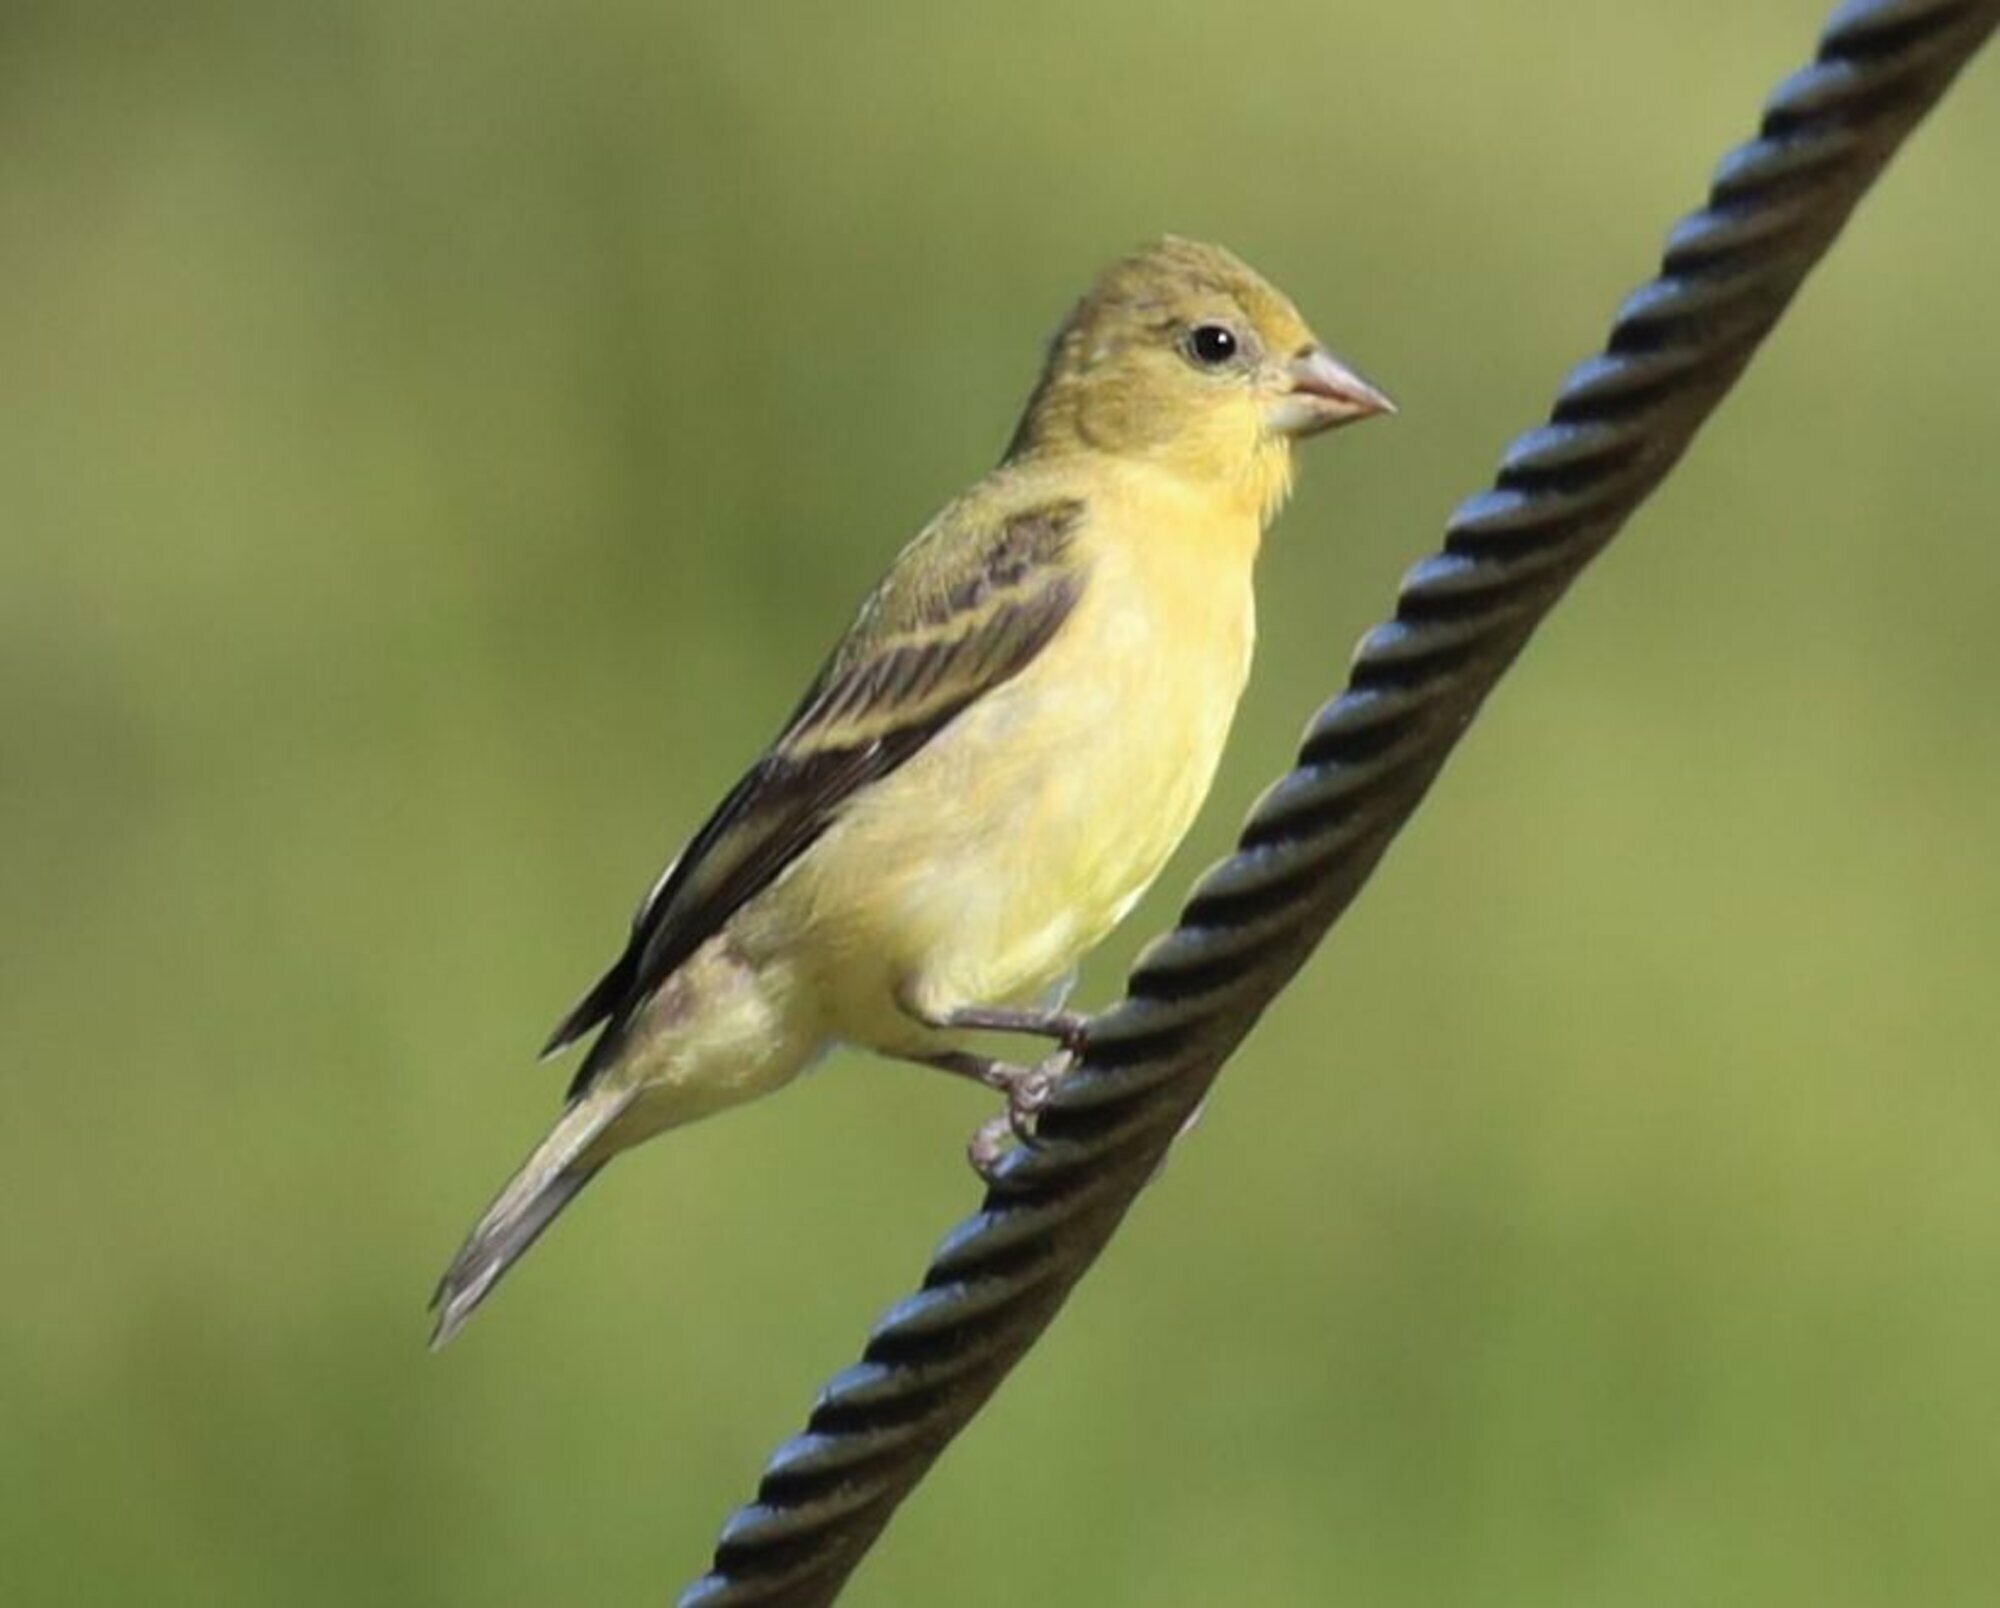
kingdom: Animalia
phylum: Chordata
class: Aves
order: Passeriformes
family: Fringillidae
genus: Spinus
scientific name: Spinus psaltria
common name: Lesser goldfinch
